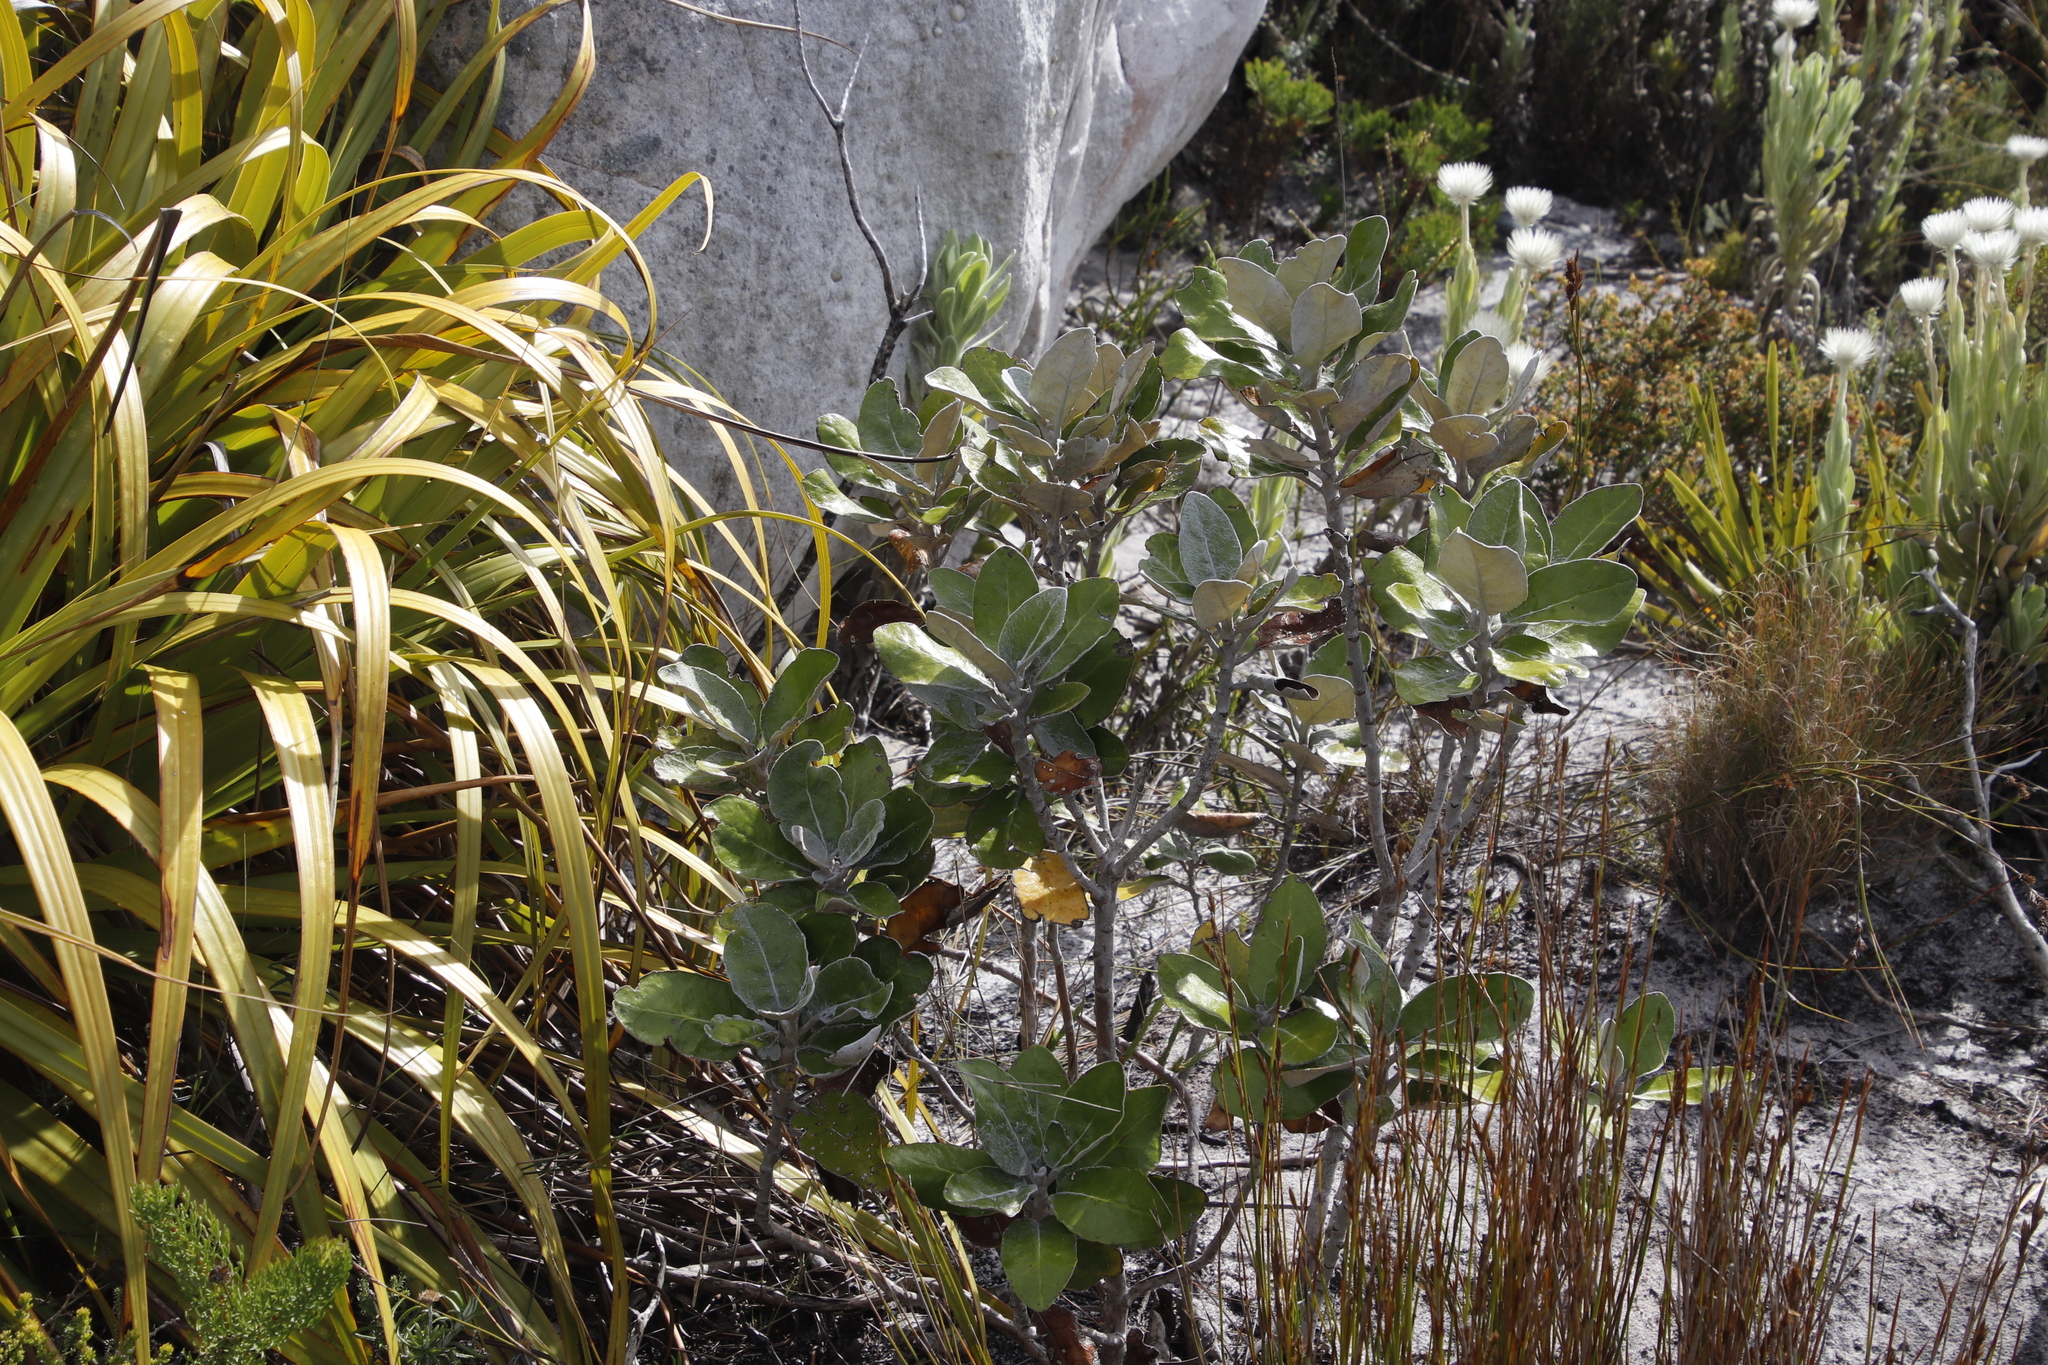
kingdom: Plantae
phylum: Tracheophyta
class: Magnoliopsida
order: Asterales
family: Asteraceae
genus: Capelio
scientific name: Capelio tabularis
